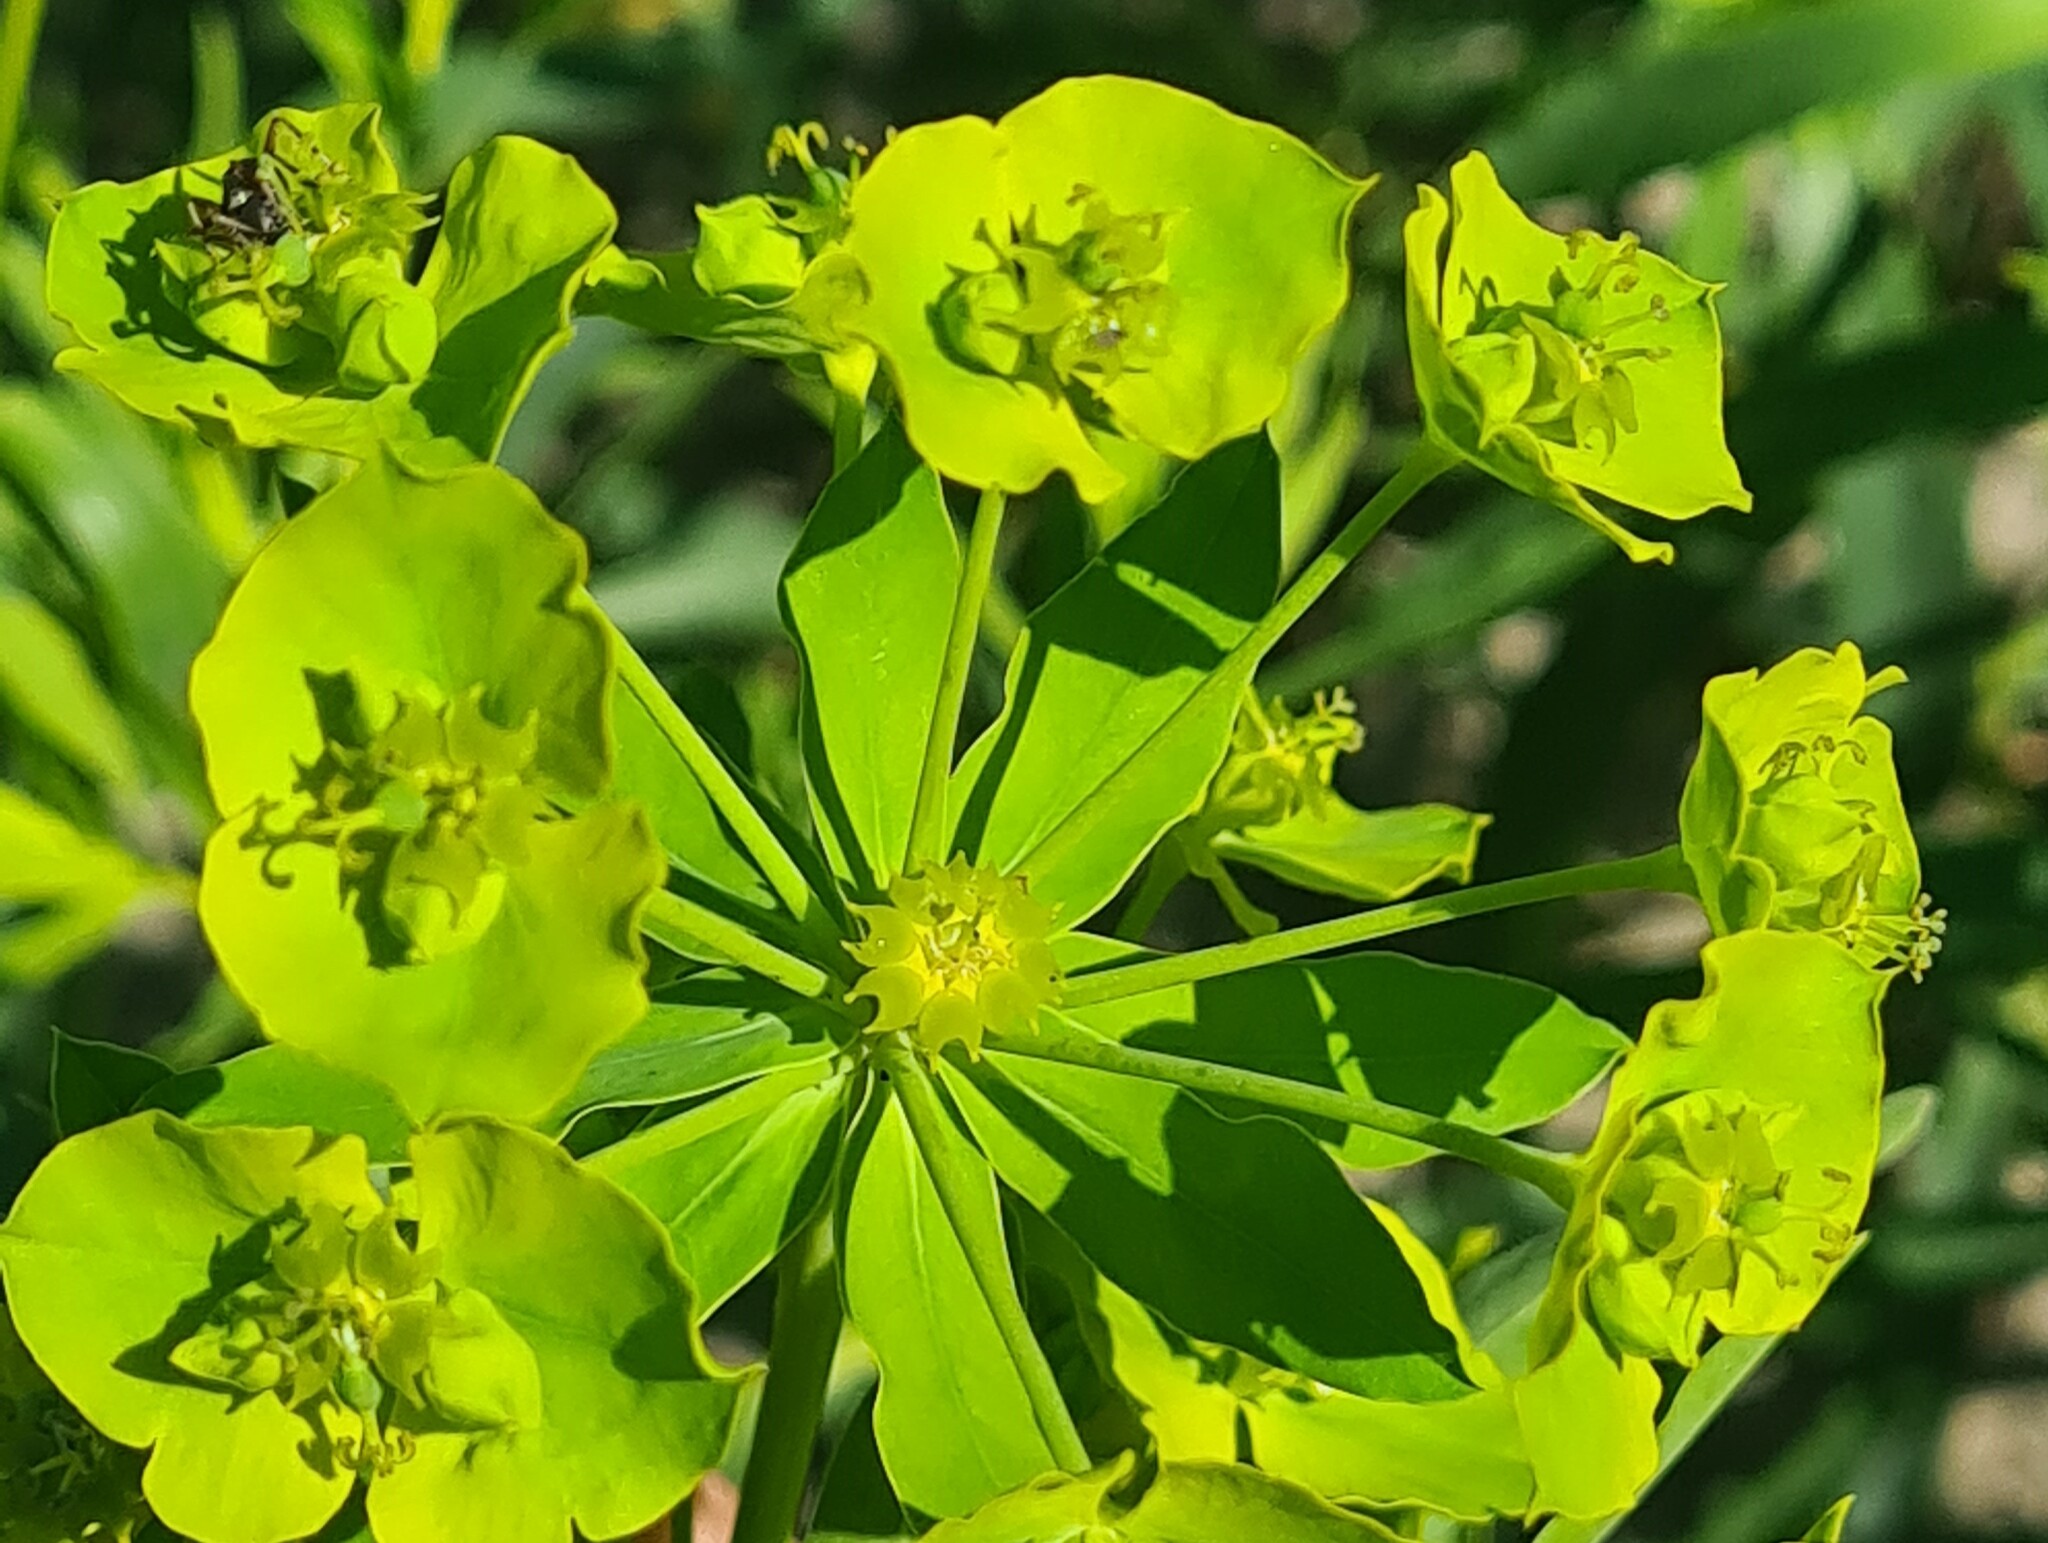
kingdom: Plantae
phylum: Tracheophyta
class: Magnoliopsida
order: Malpighiales
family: Euphorbiaceae
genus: Euphorbia
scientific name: Euphorbia virgata
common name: Leafy spurge
